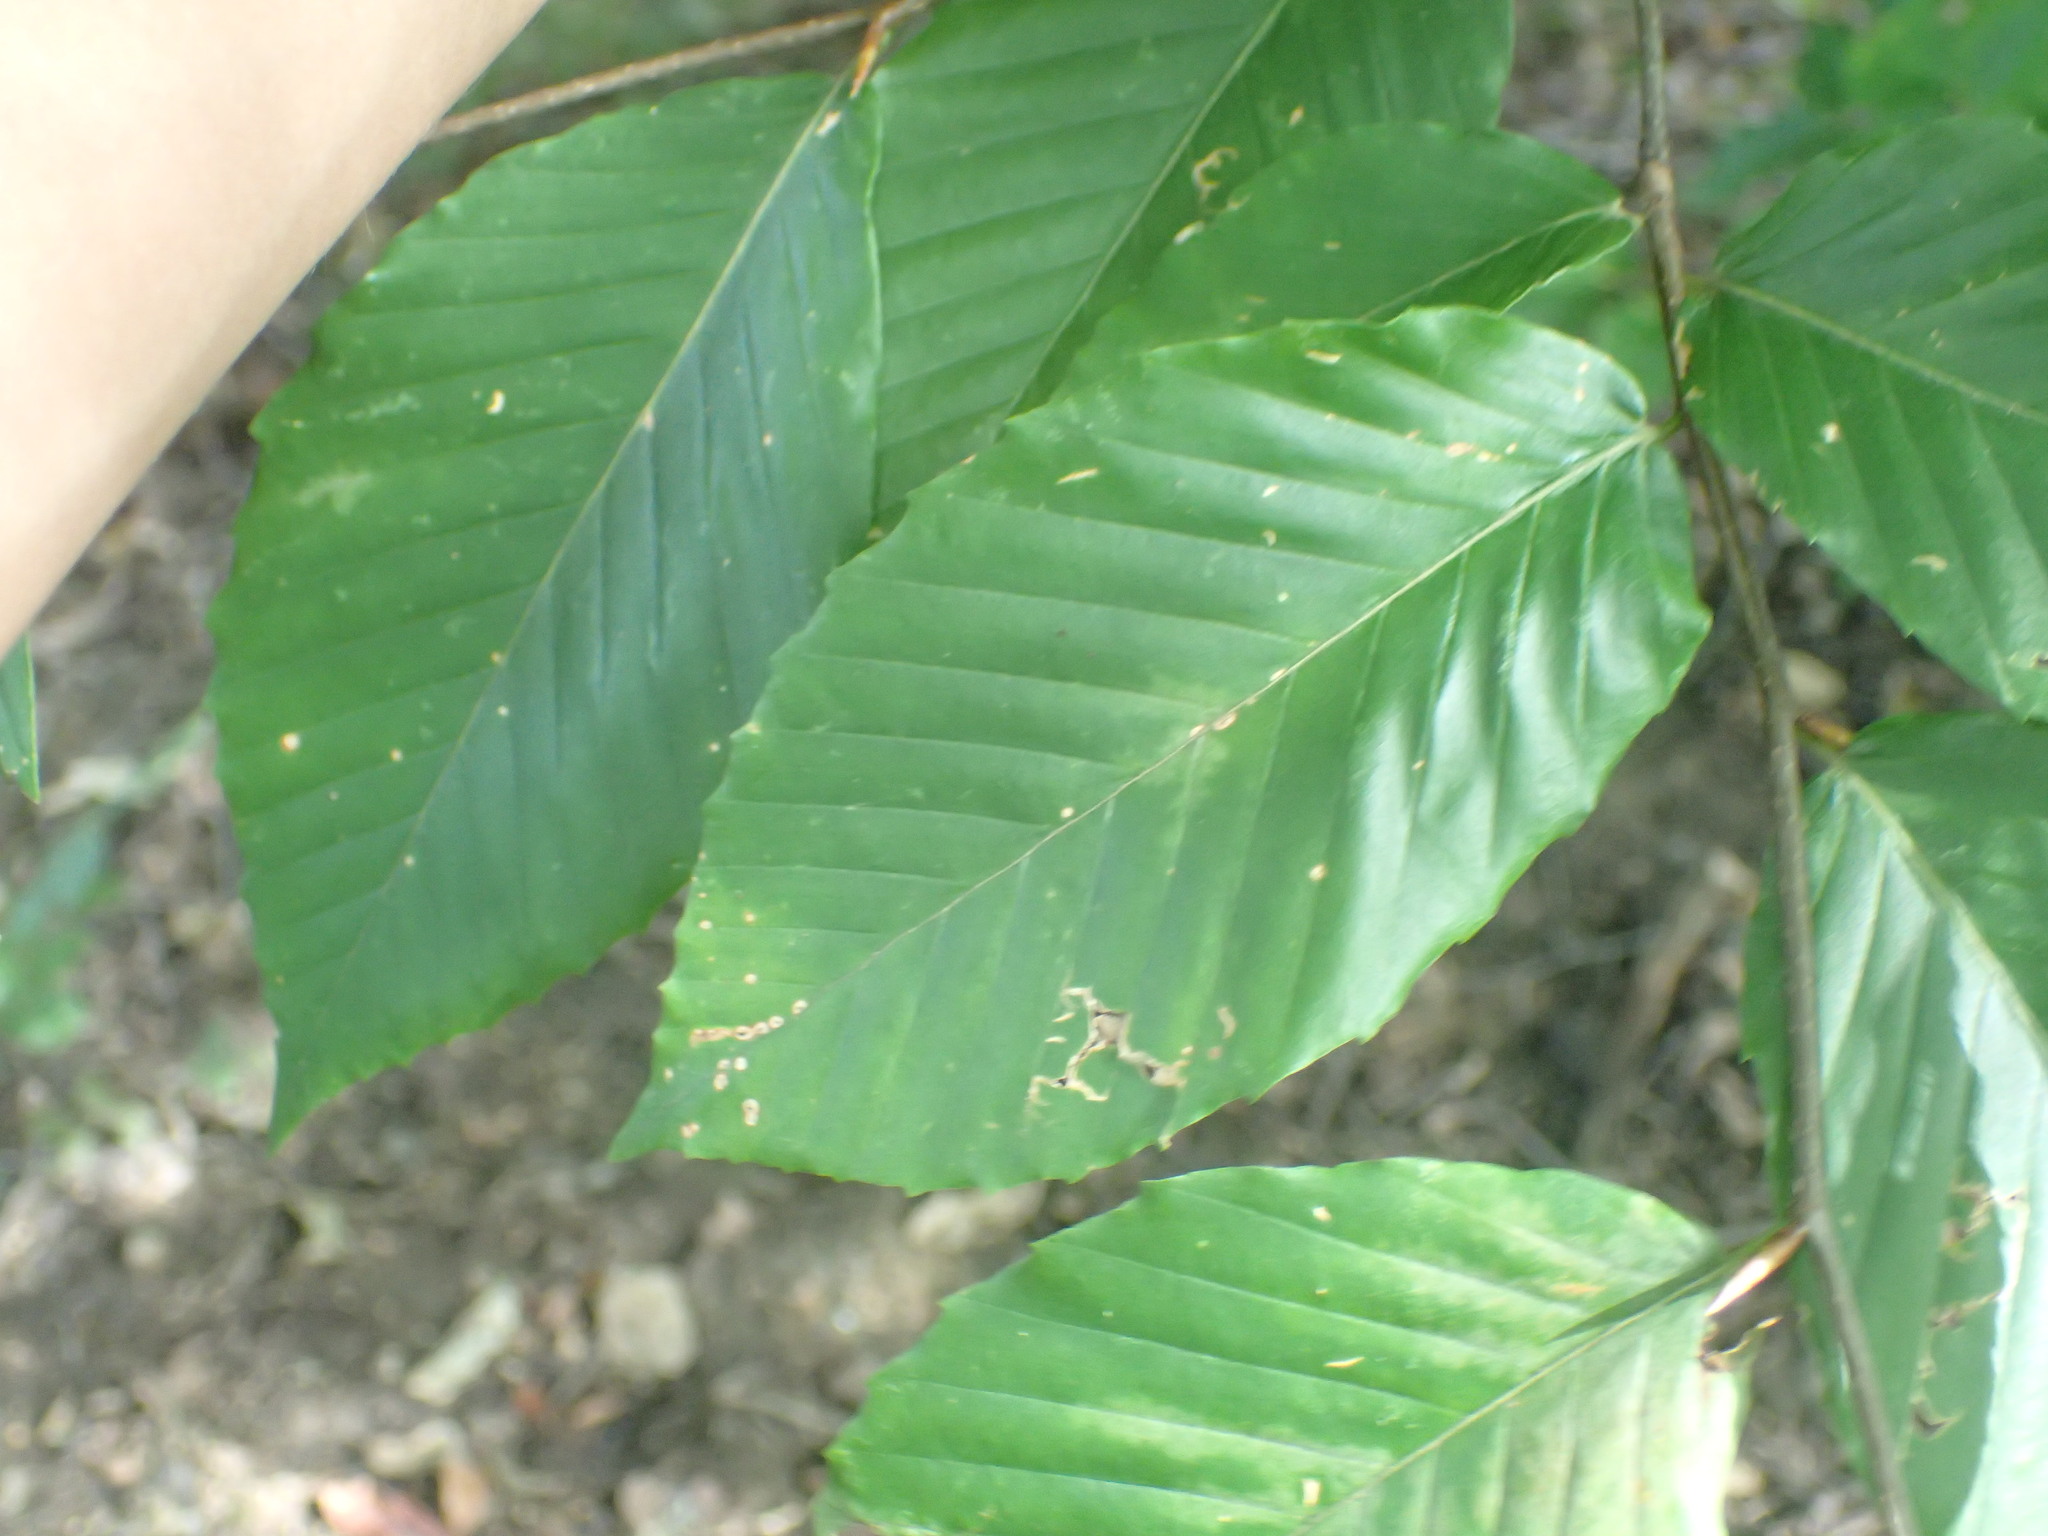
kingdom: Plantae
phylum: Tracheophyta
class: Magnoliopsida
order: Fagales
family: Fagaceae
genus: Fagus
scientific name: Fagus grandifolia
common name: American beech
